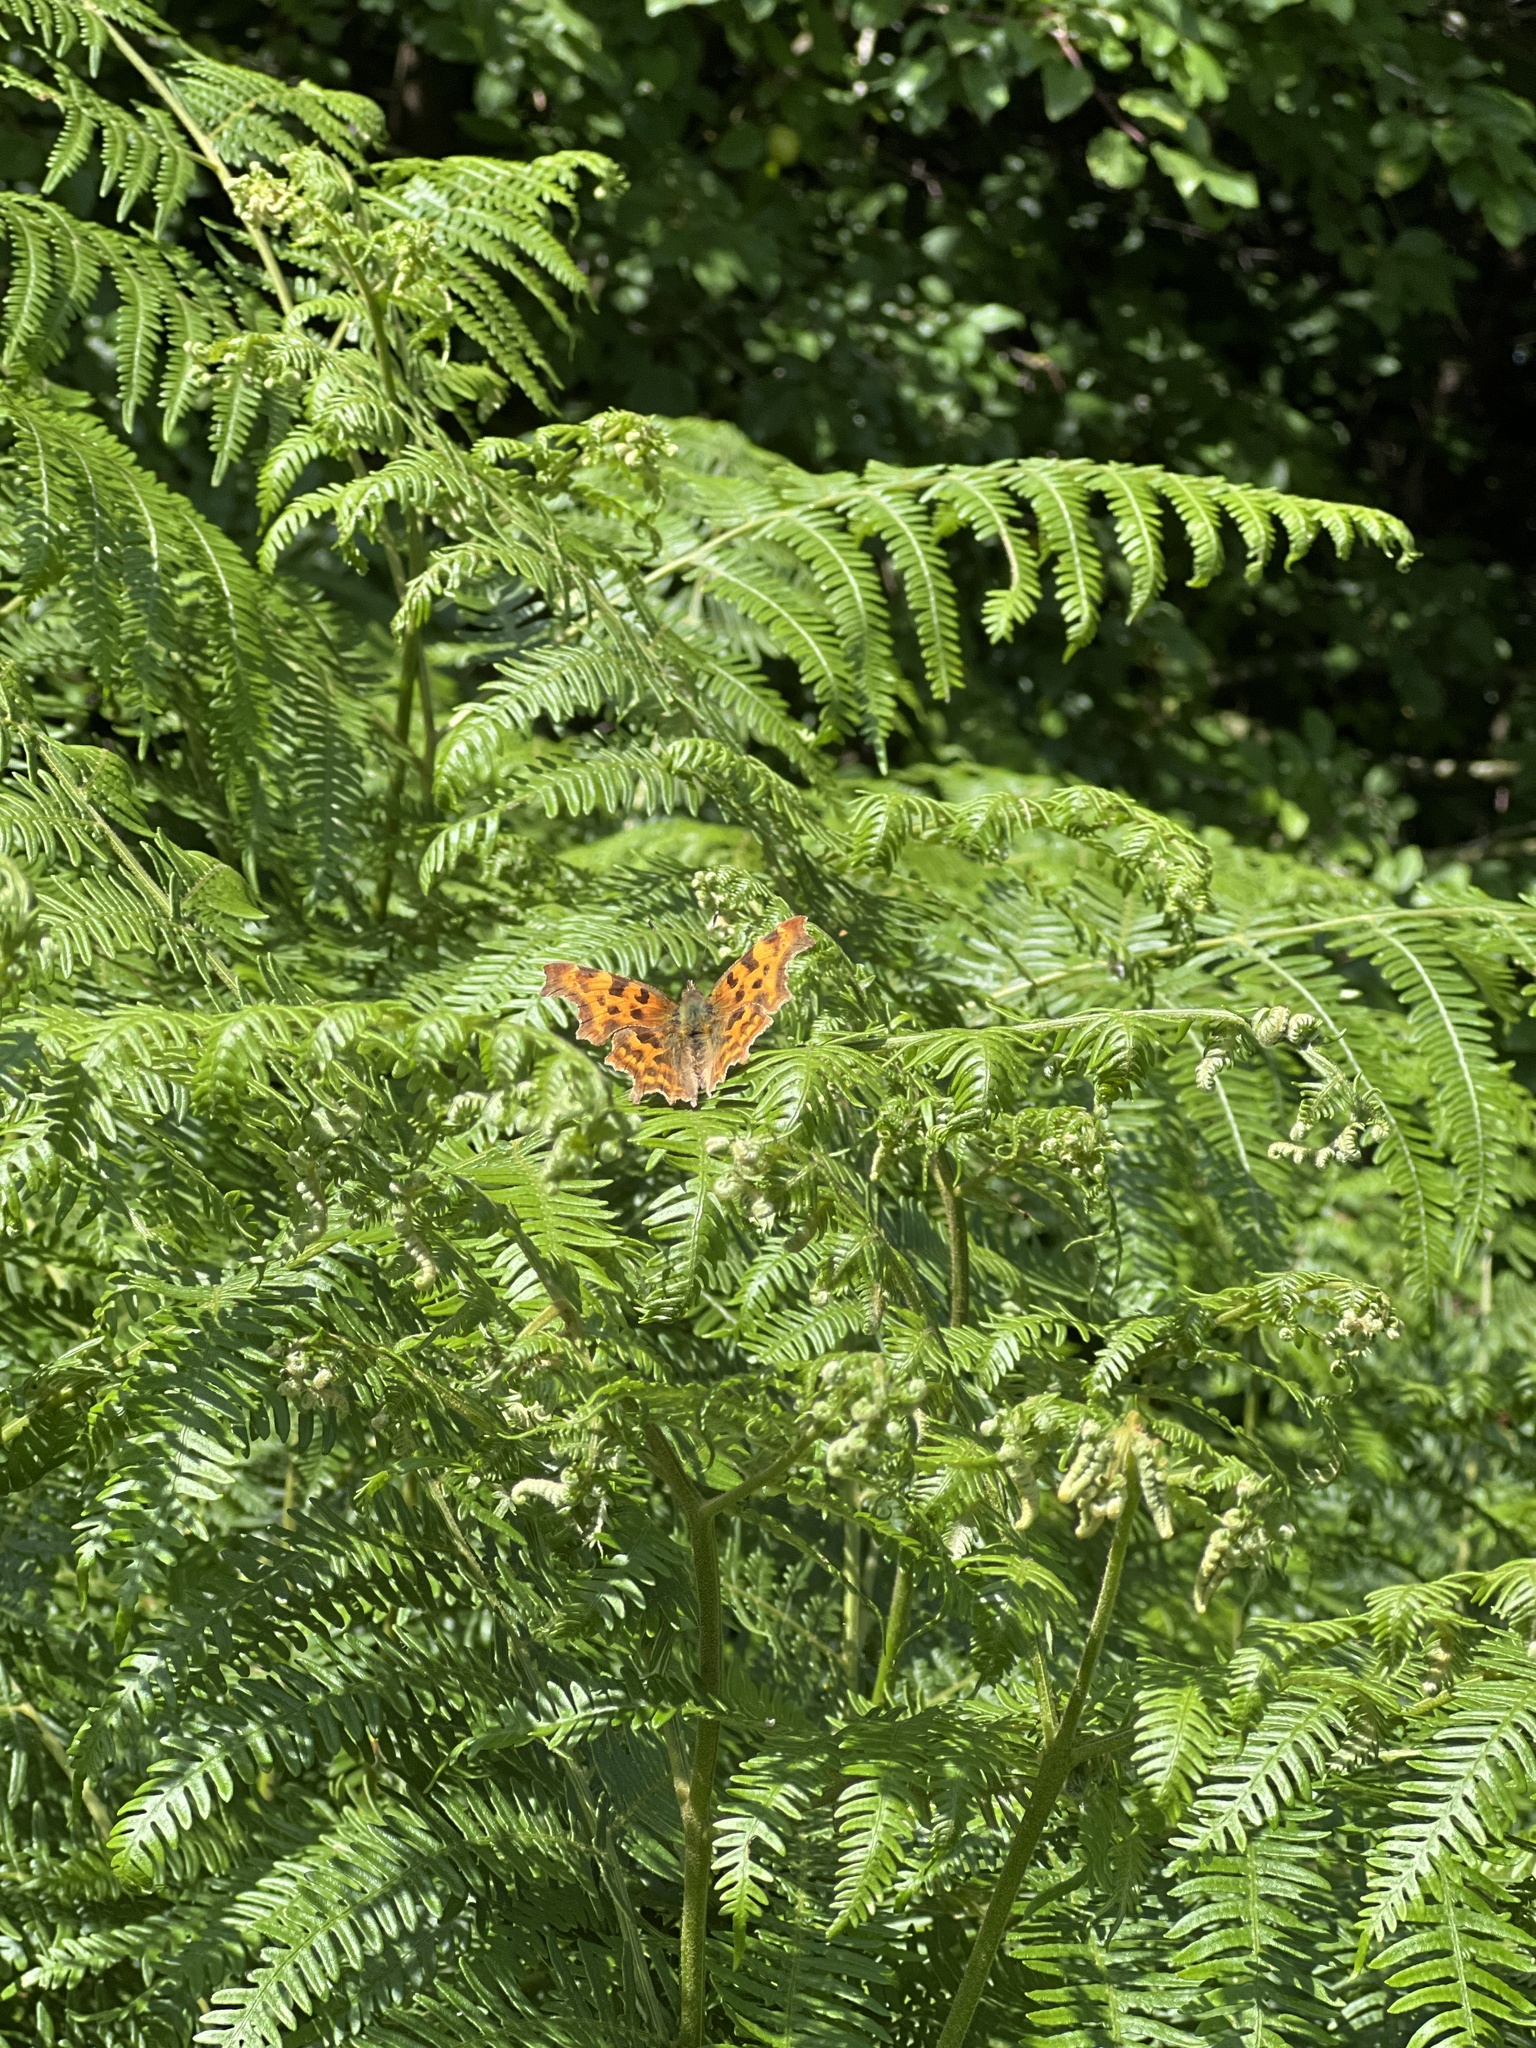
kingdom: Animalia
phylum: Arthropoda
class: Insecta
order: Lepidoptera
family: Nymphalidae
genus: Polygonia
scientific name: Polygonia c-album
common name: Comma
